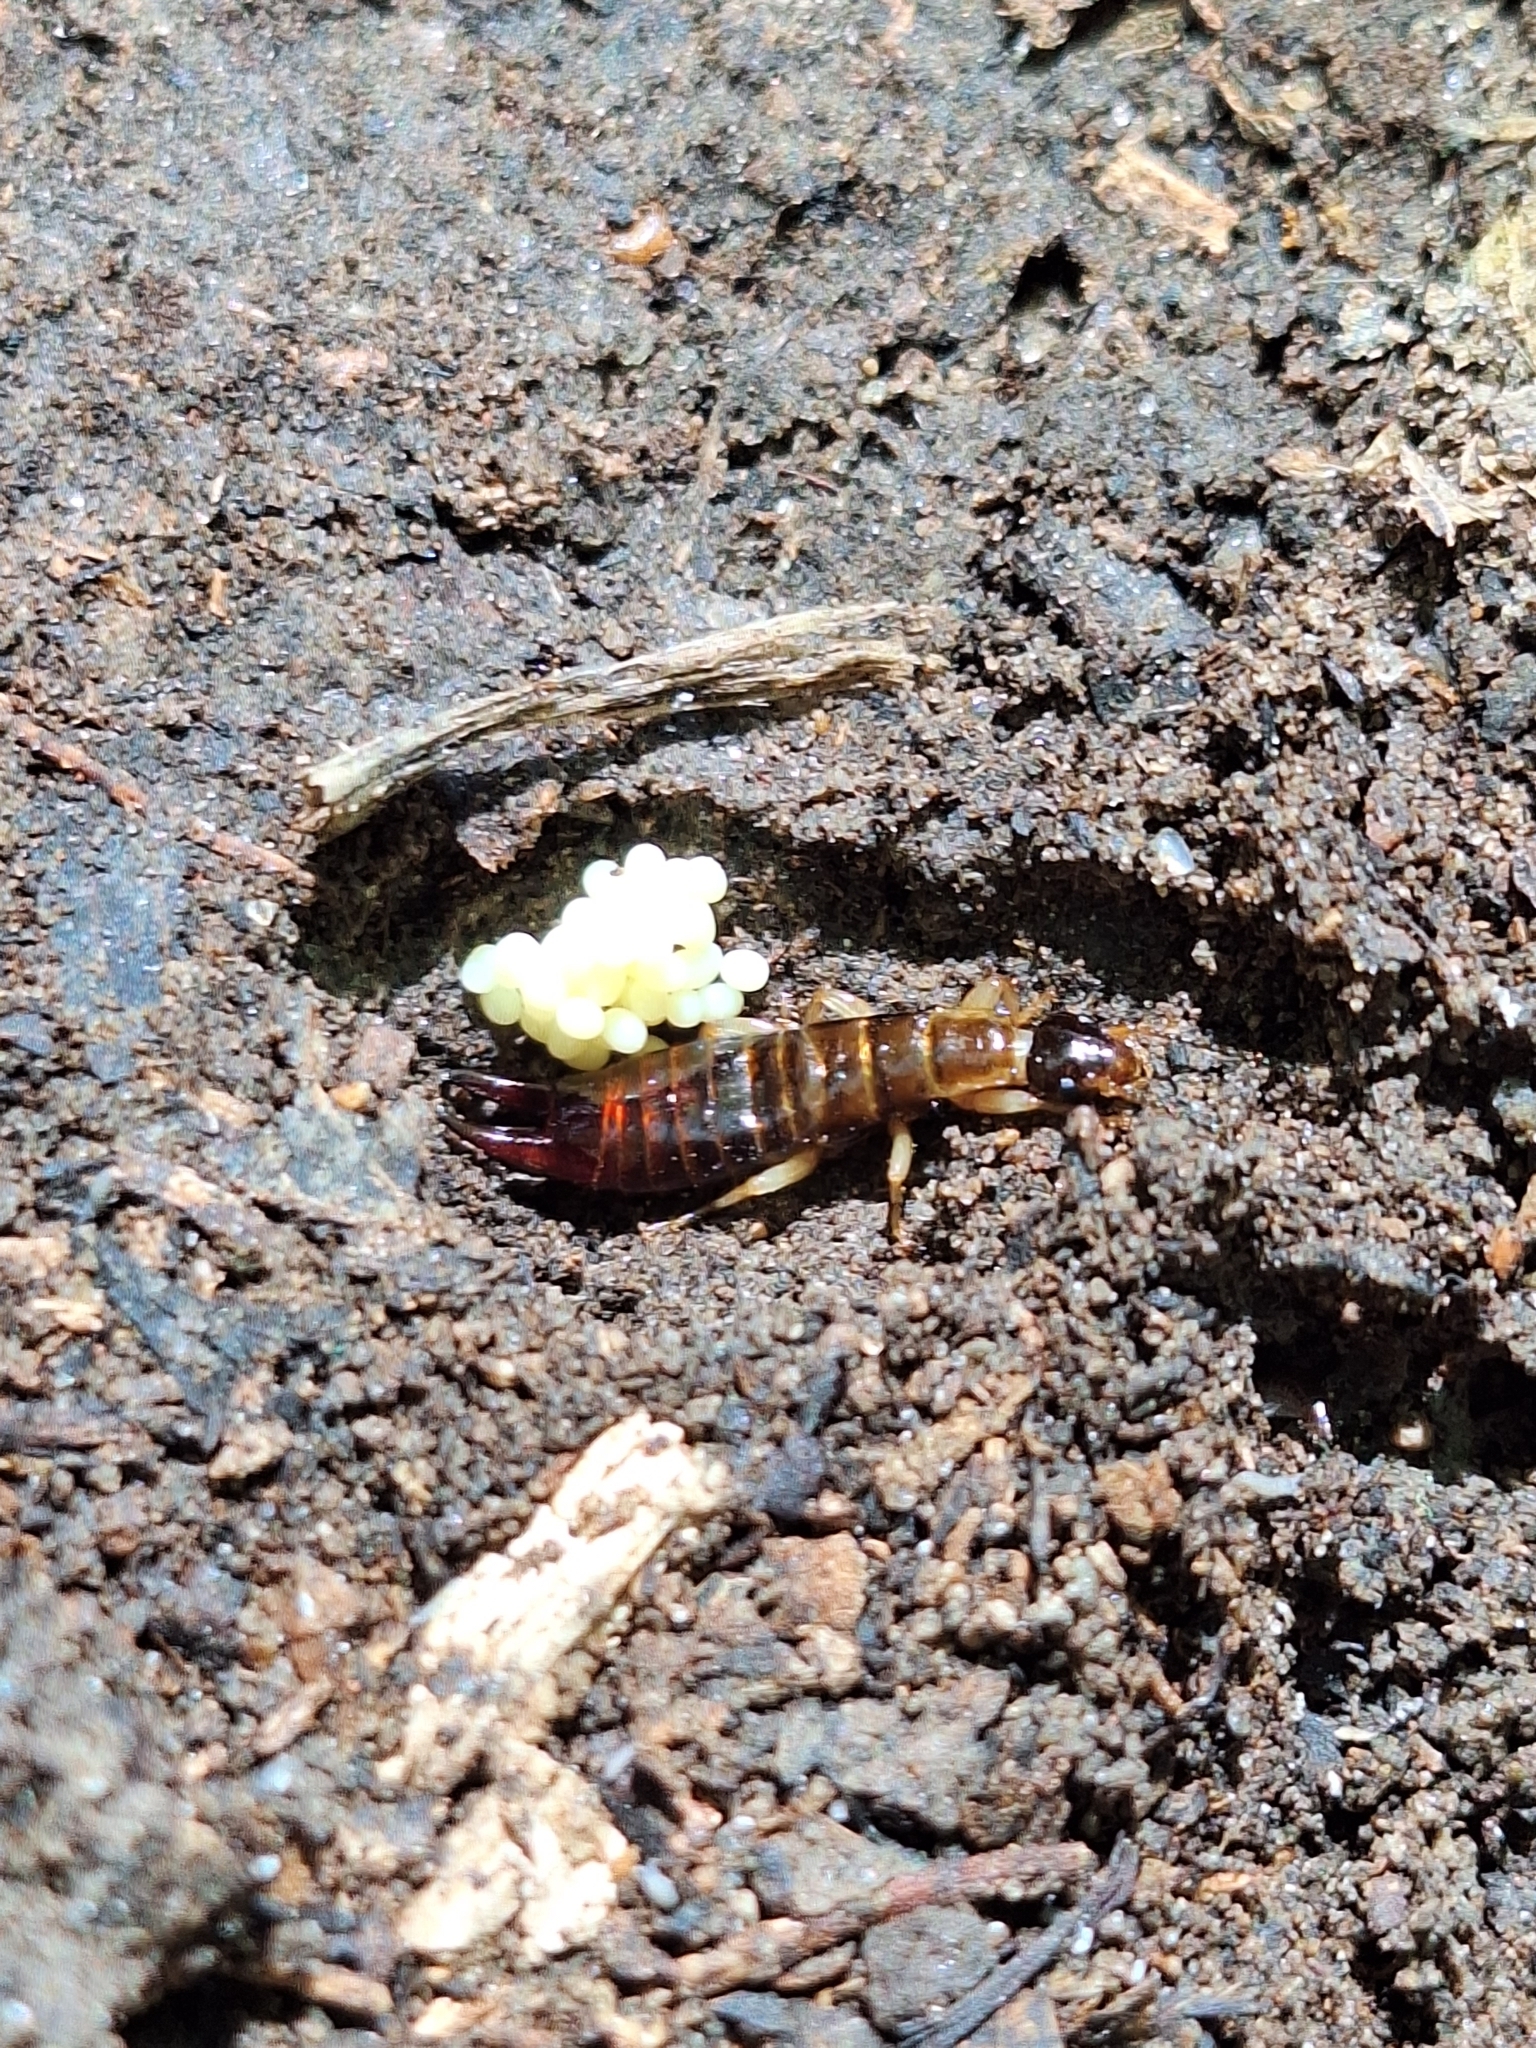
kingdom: Animalia
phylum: Arthropoda
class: Insecta
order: Dermaptera
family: Anisolabididae
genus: Euborellia
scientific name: Euborellia annulipes
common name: Ringlegged earwig
